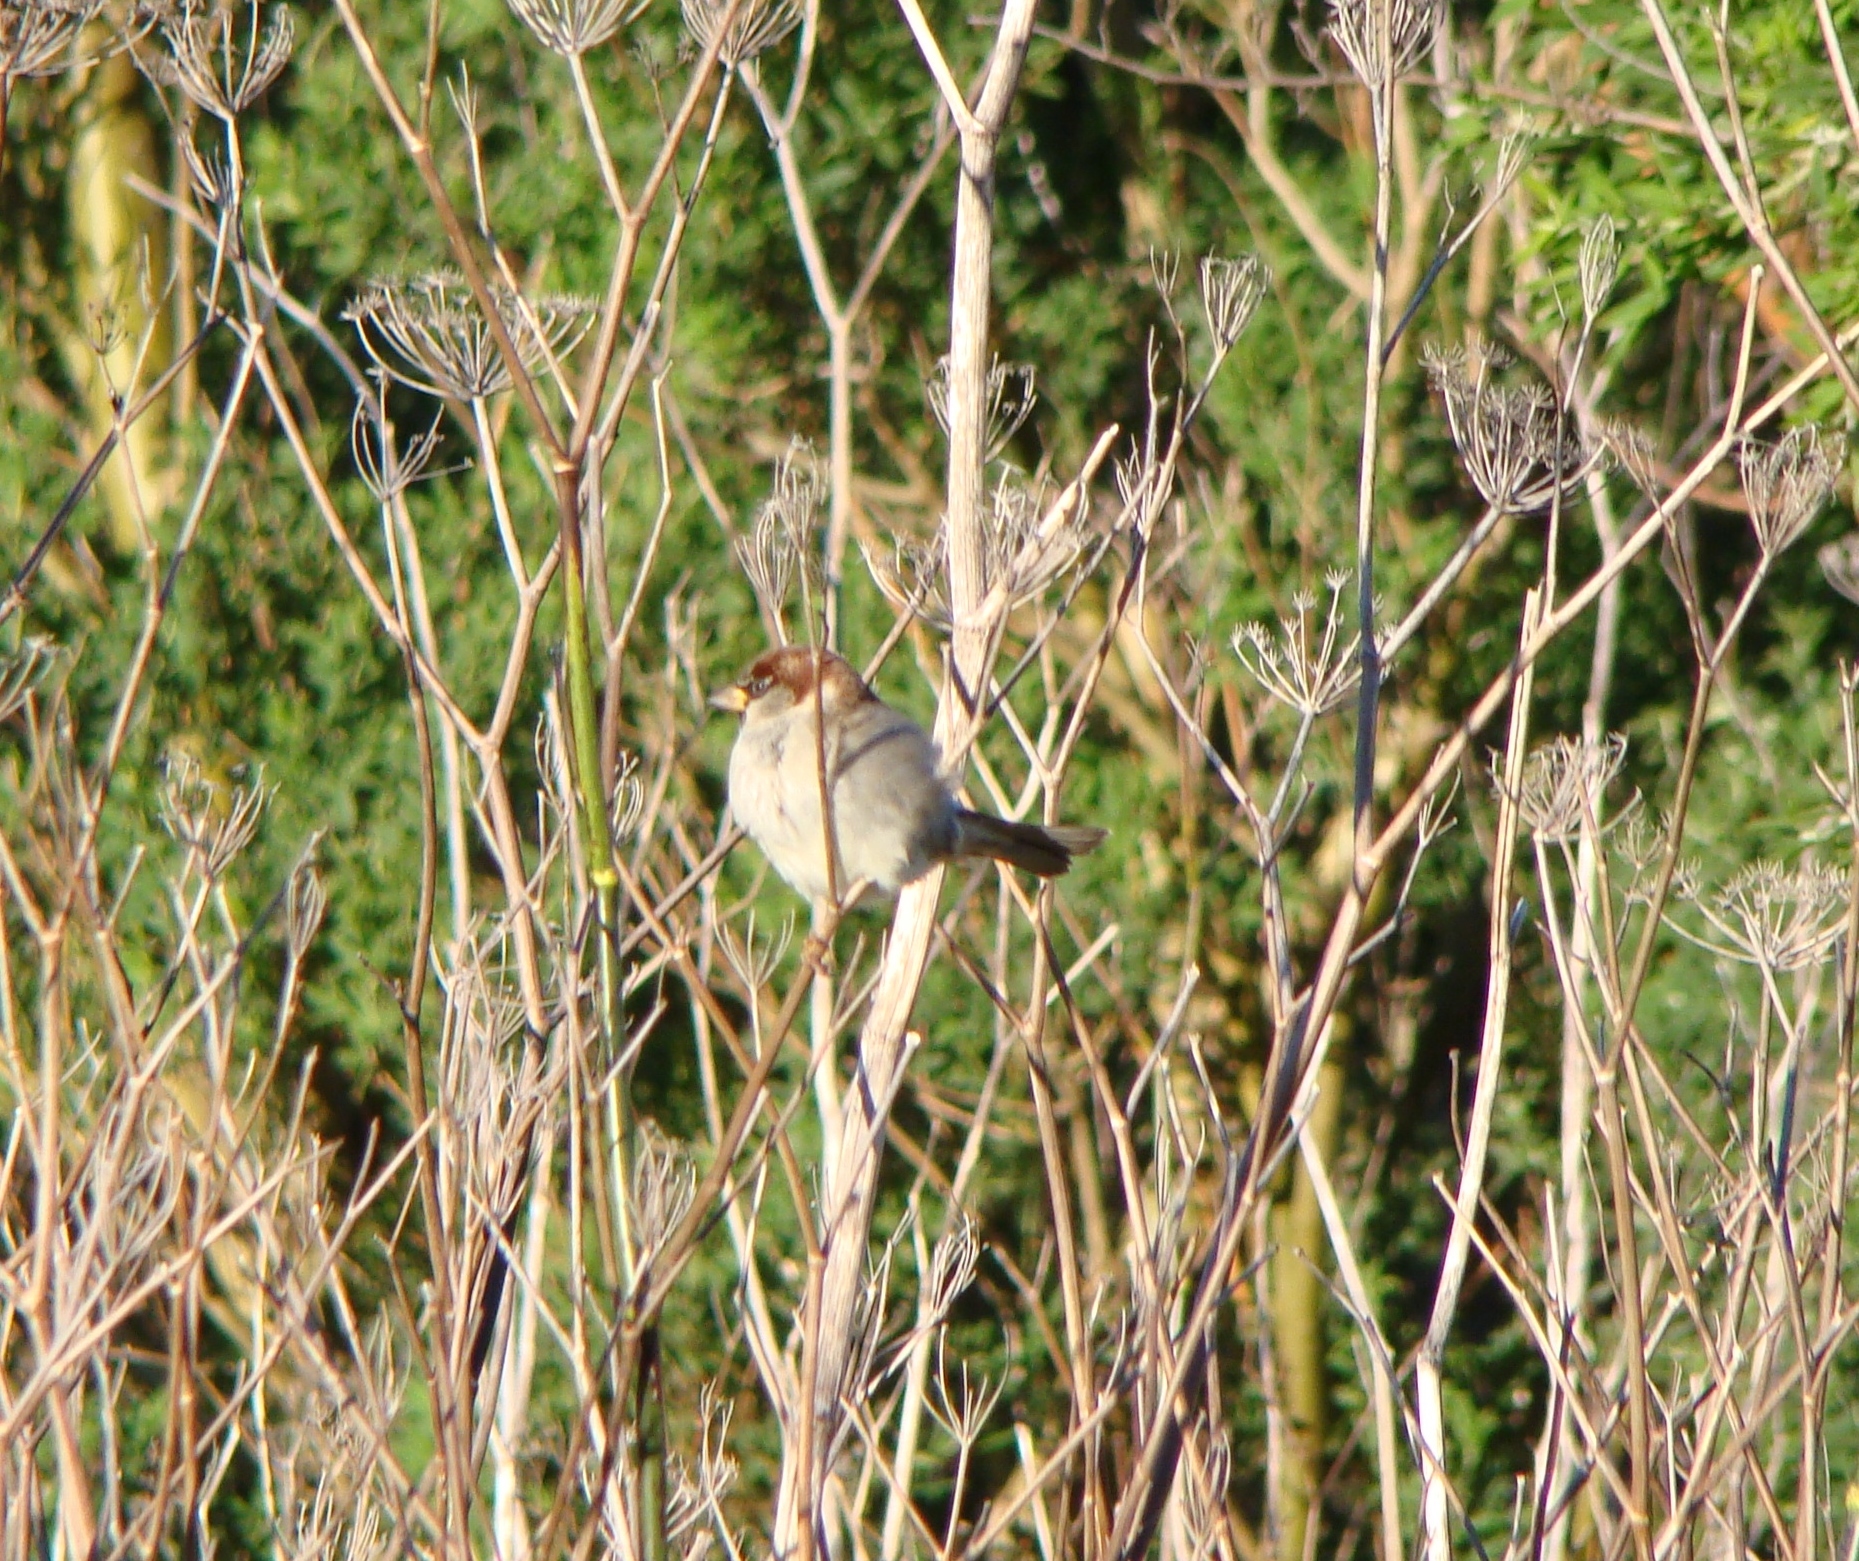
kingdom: Animalia
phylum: Chordata
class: Aves
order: Passeriformes
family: Passeridae
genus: Passer
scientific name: Passer domesticus
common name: House sparrow
